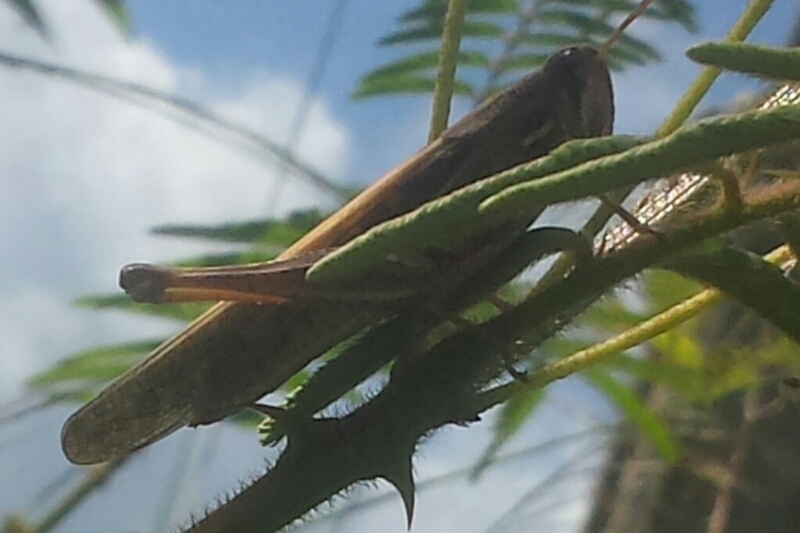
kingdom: Animalia
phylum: Arthropoda
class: Insecta
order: Orthoptera
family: Acrididae
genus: Schistocerca
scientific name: Schistocerca serialis
